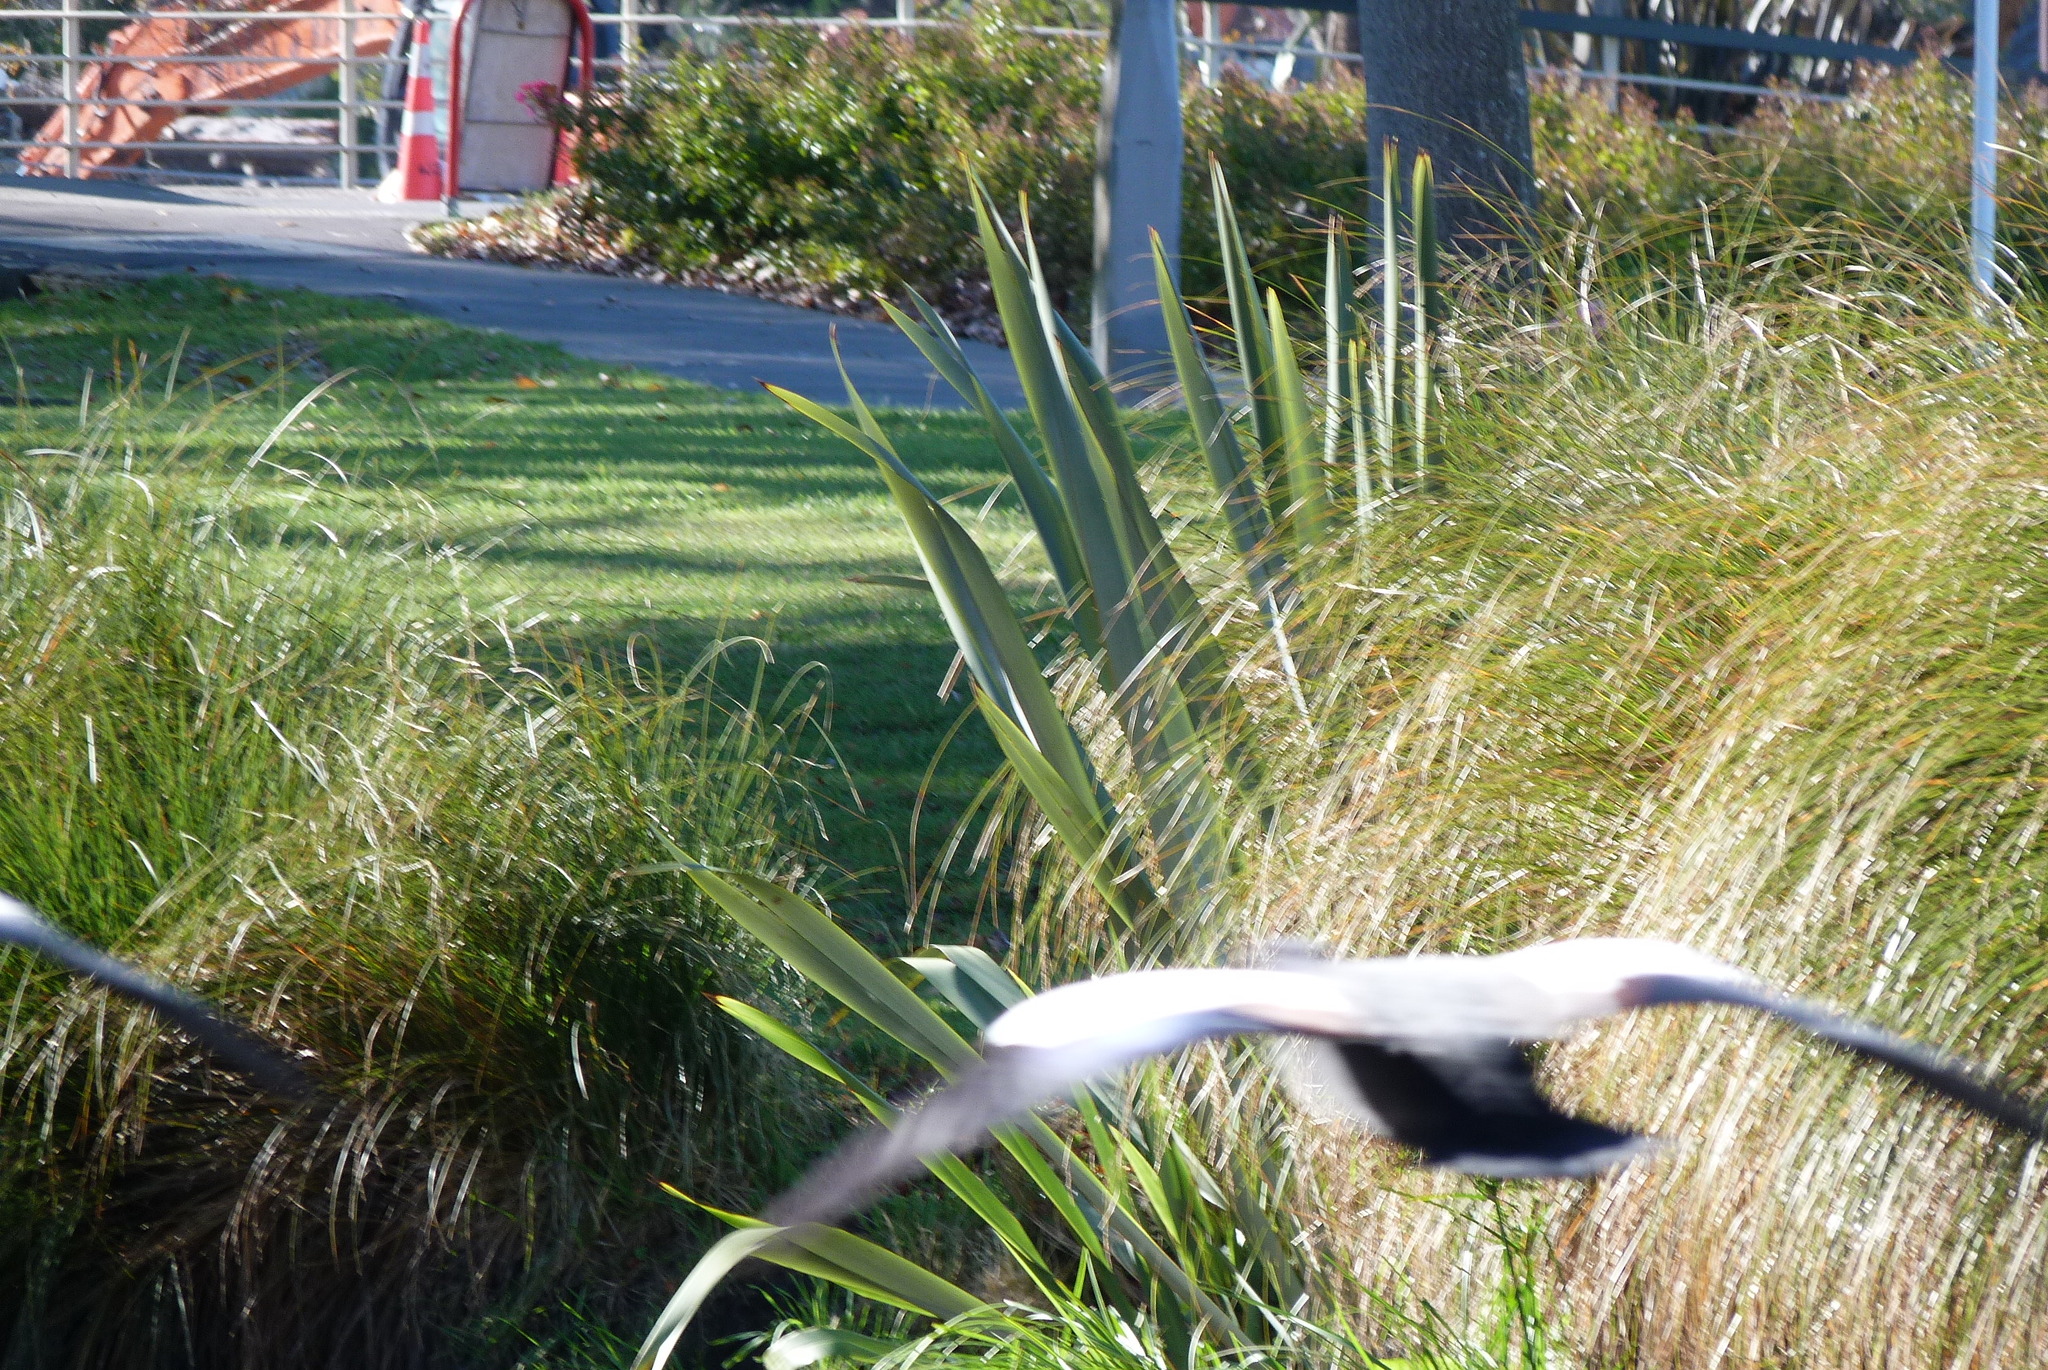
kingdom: Plantae
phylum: Tracheophyta
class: Liliopsida
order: Asparagales
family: Asphodelaceae
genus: Phormium
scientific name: Phormium tenax
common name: New zealand flax
